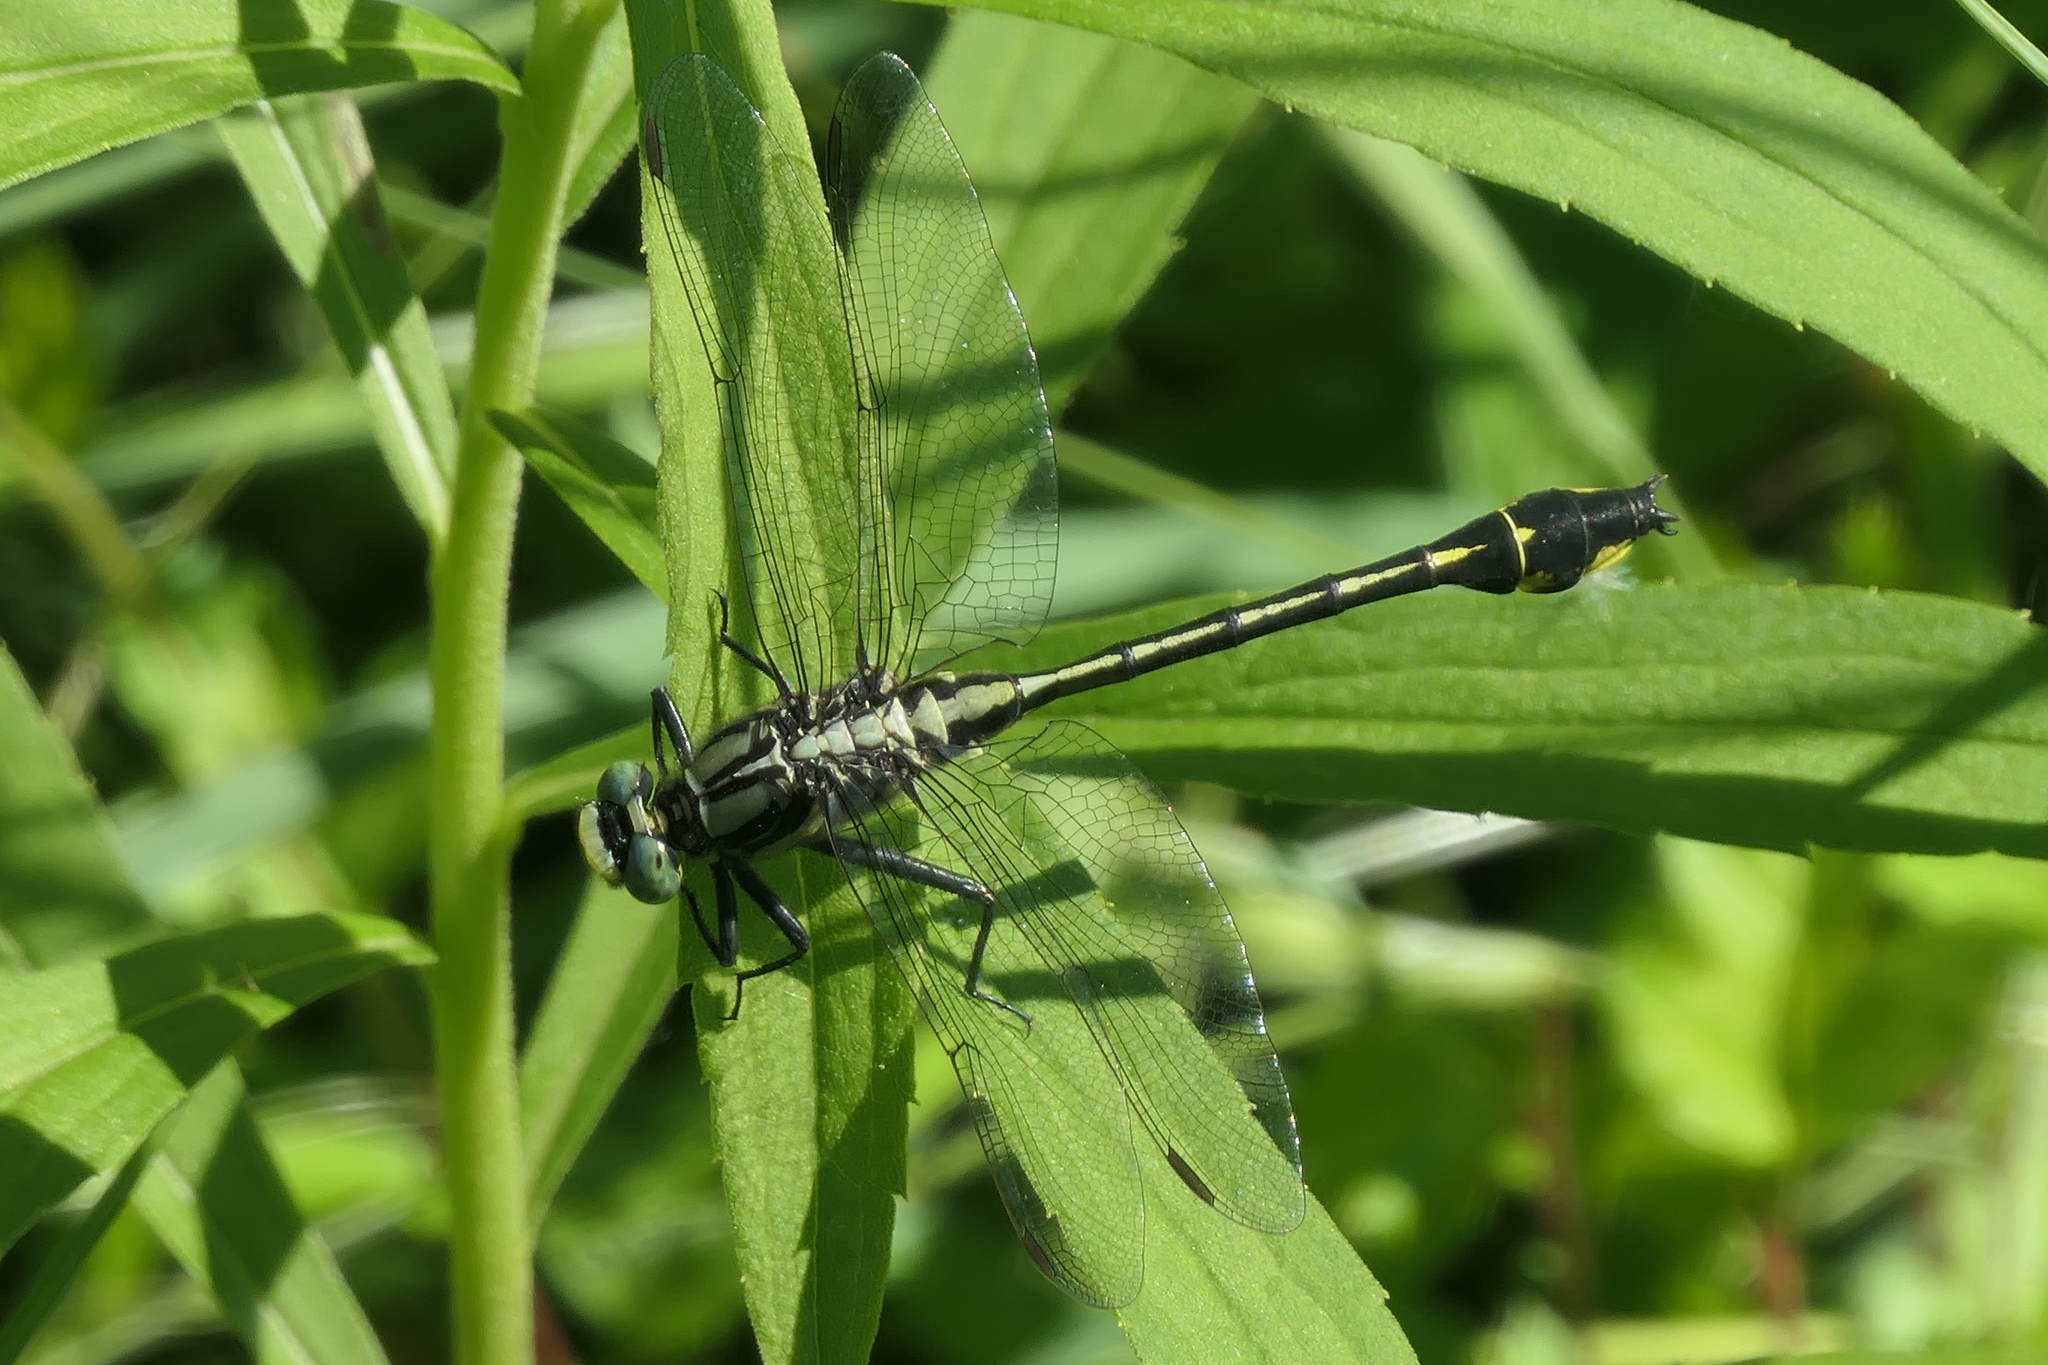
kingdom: Animalia
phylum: Arthropoda
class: Insecta
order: Odonata
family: Gomphidae
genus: Gomphurus
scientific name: Gomphurus fraternus
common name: Midland clubtail
